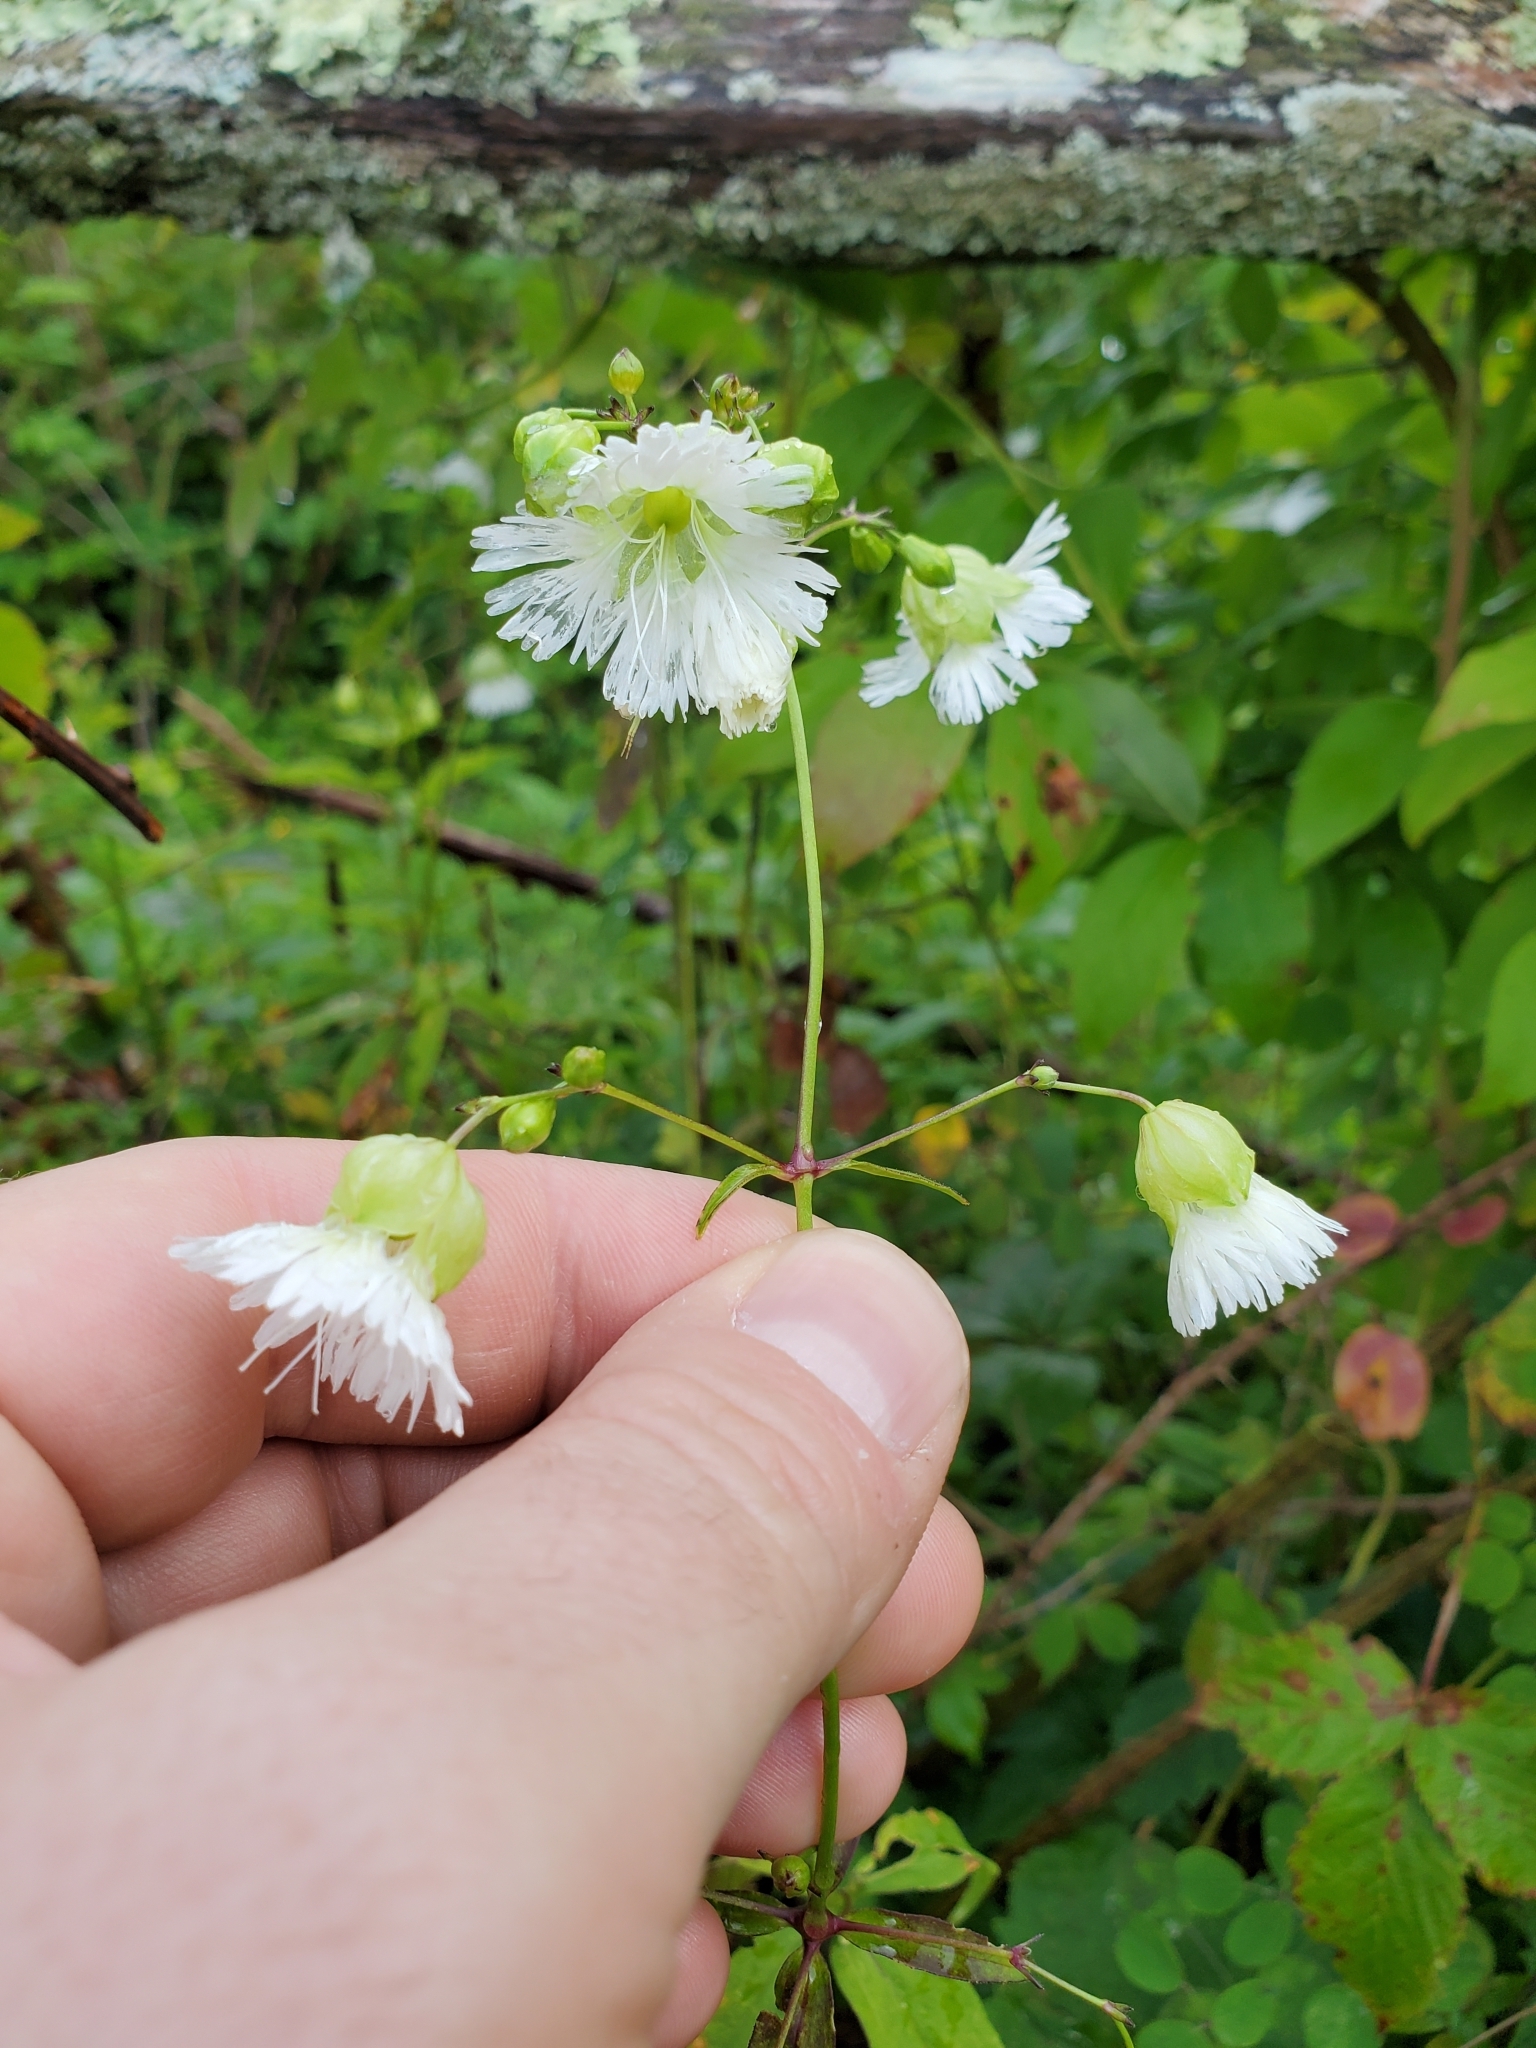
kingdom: Plantae
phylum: Tracheophyta
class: Magnoliopsida
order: Caryophyllales
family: Caryophyllaceae
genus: Silene
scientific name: Silene stellata
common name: Starry campion
